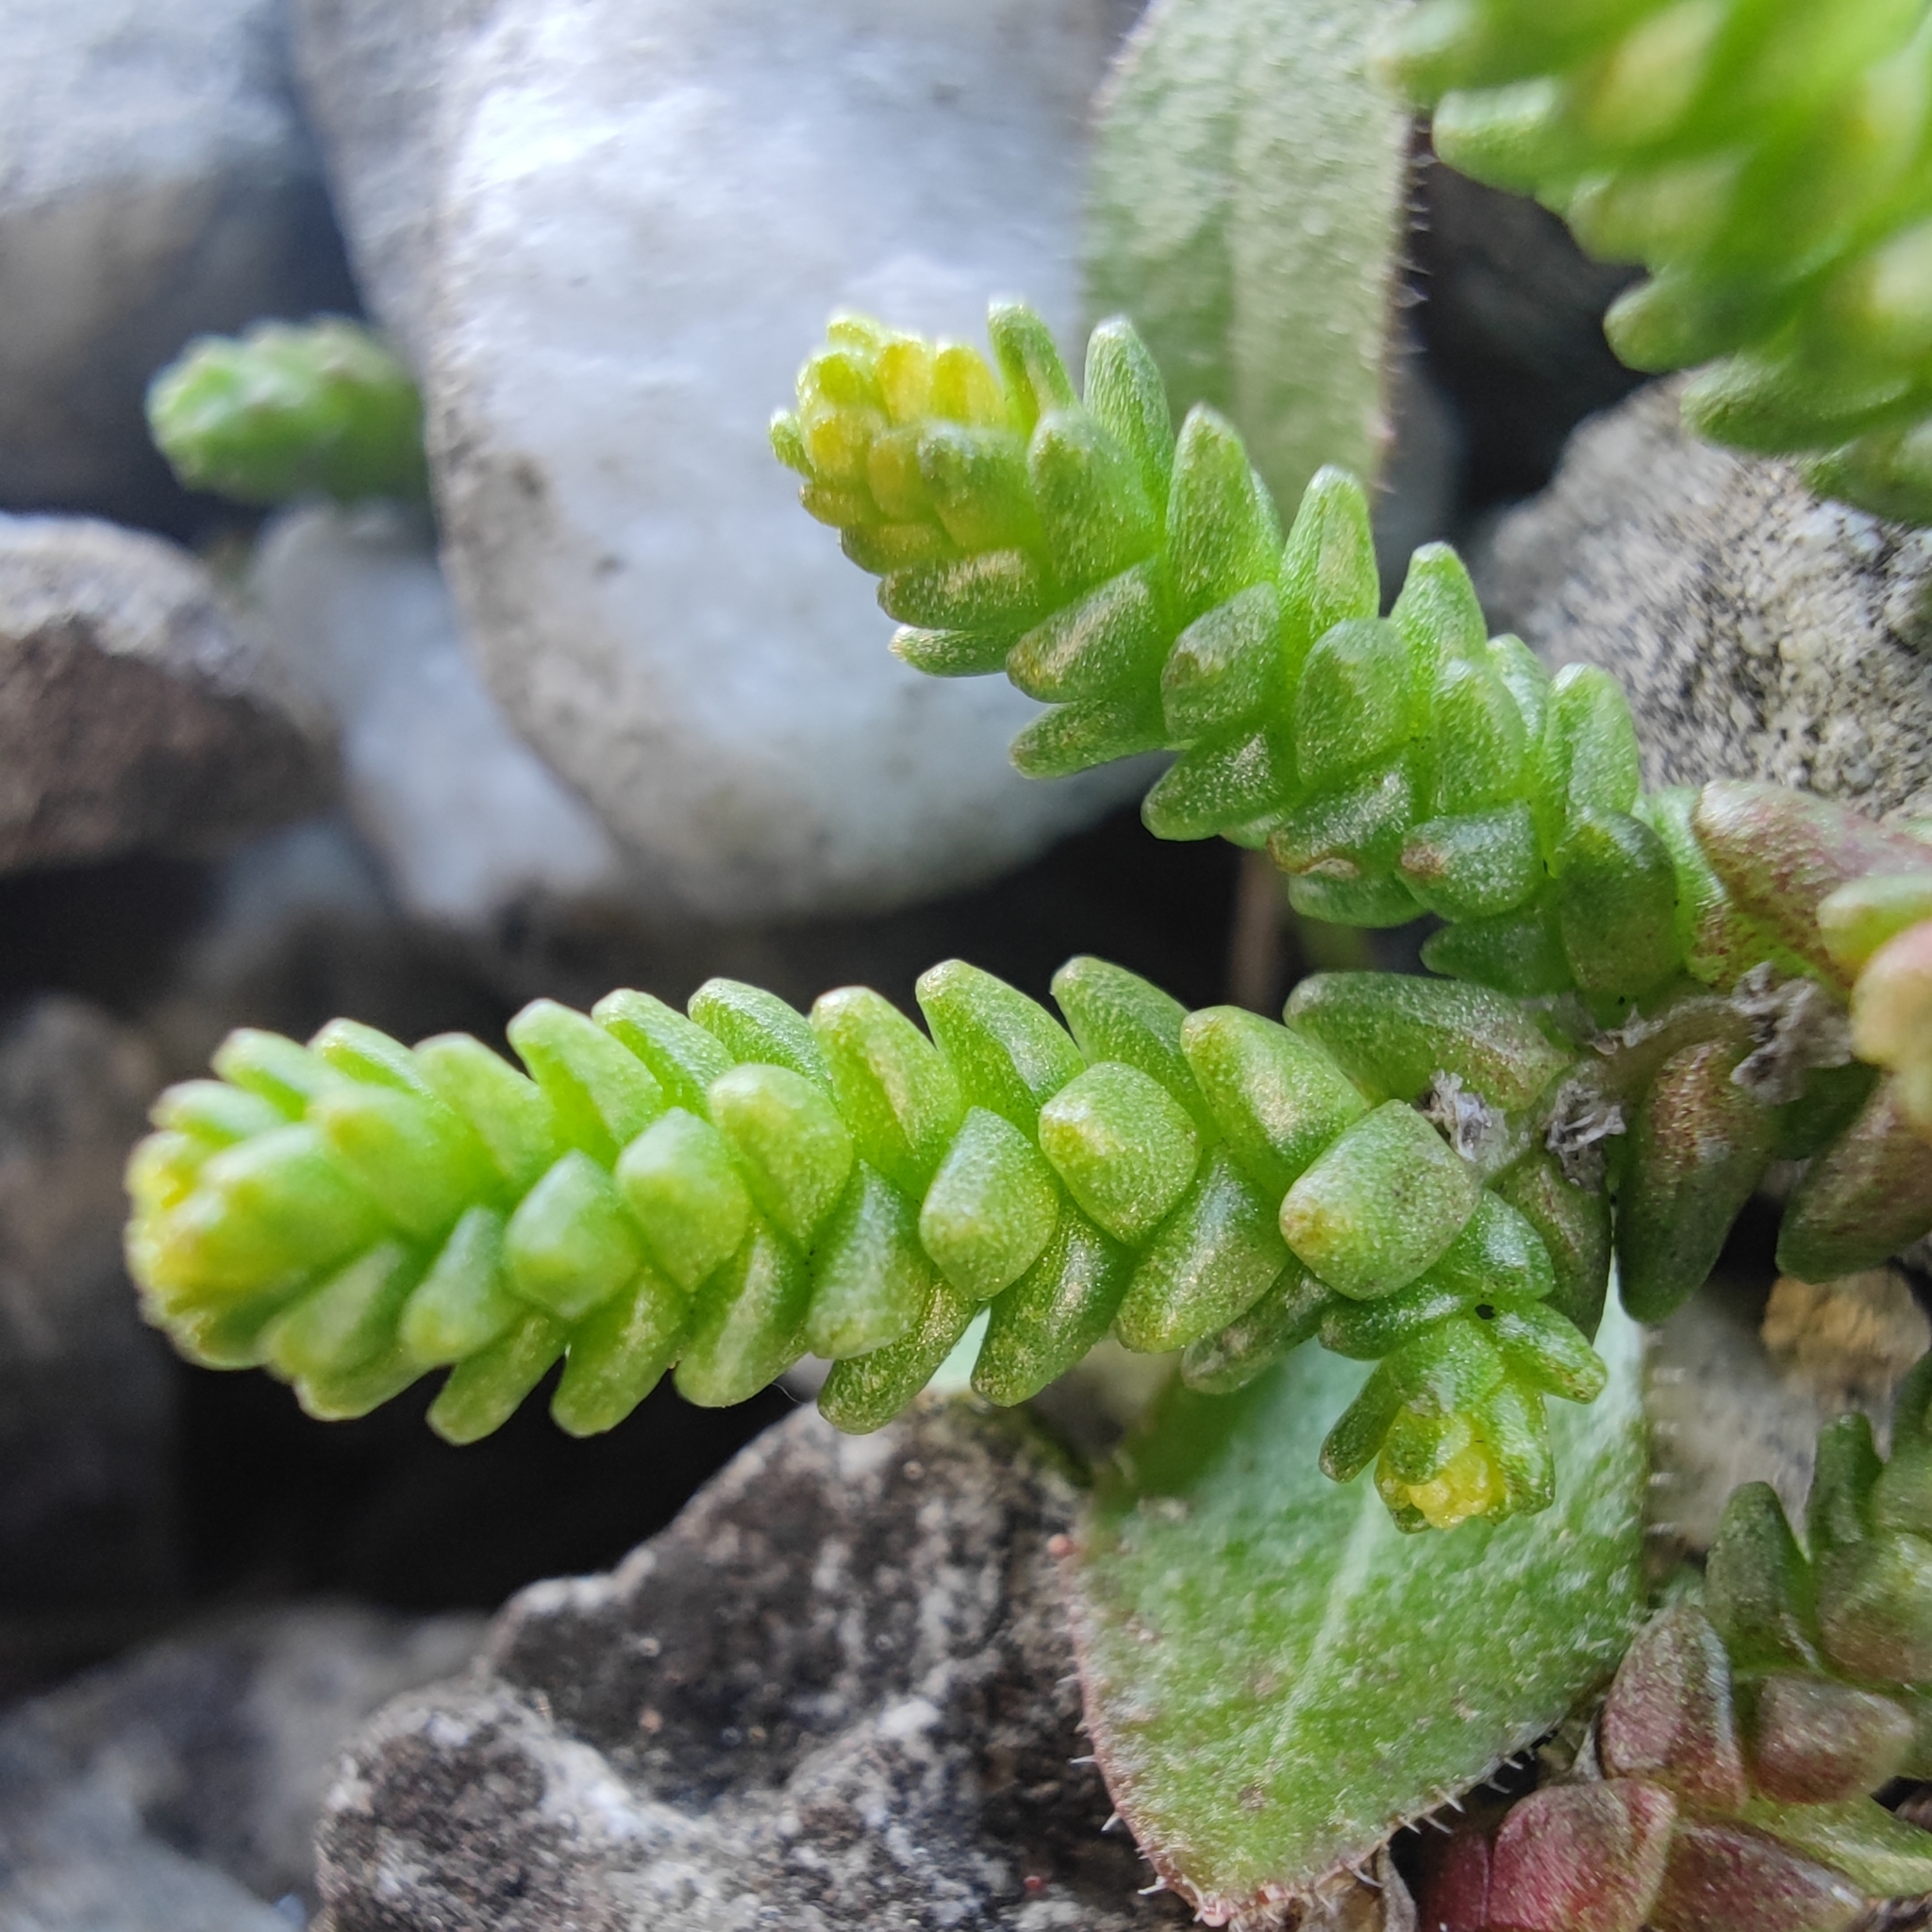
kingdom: Plantae
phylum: Tracheophyta
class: Magnoliopsida
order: Saxifragales
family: Crassulaceae
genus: Sedum
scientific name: Sedum acre
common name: Biting stonecrop
